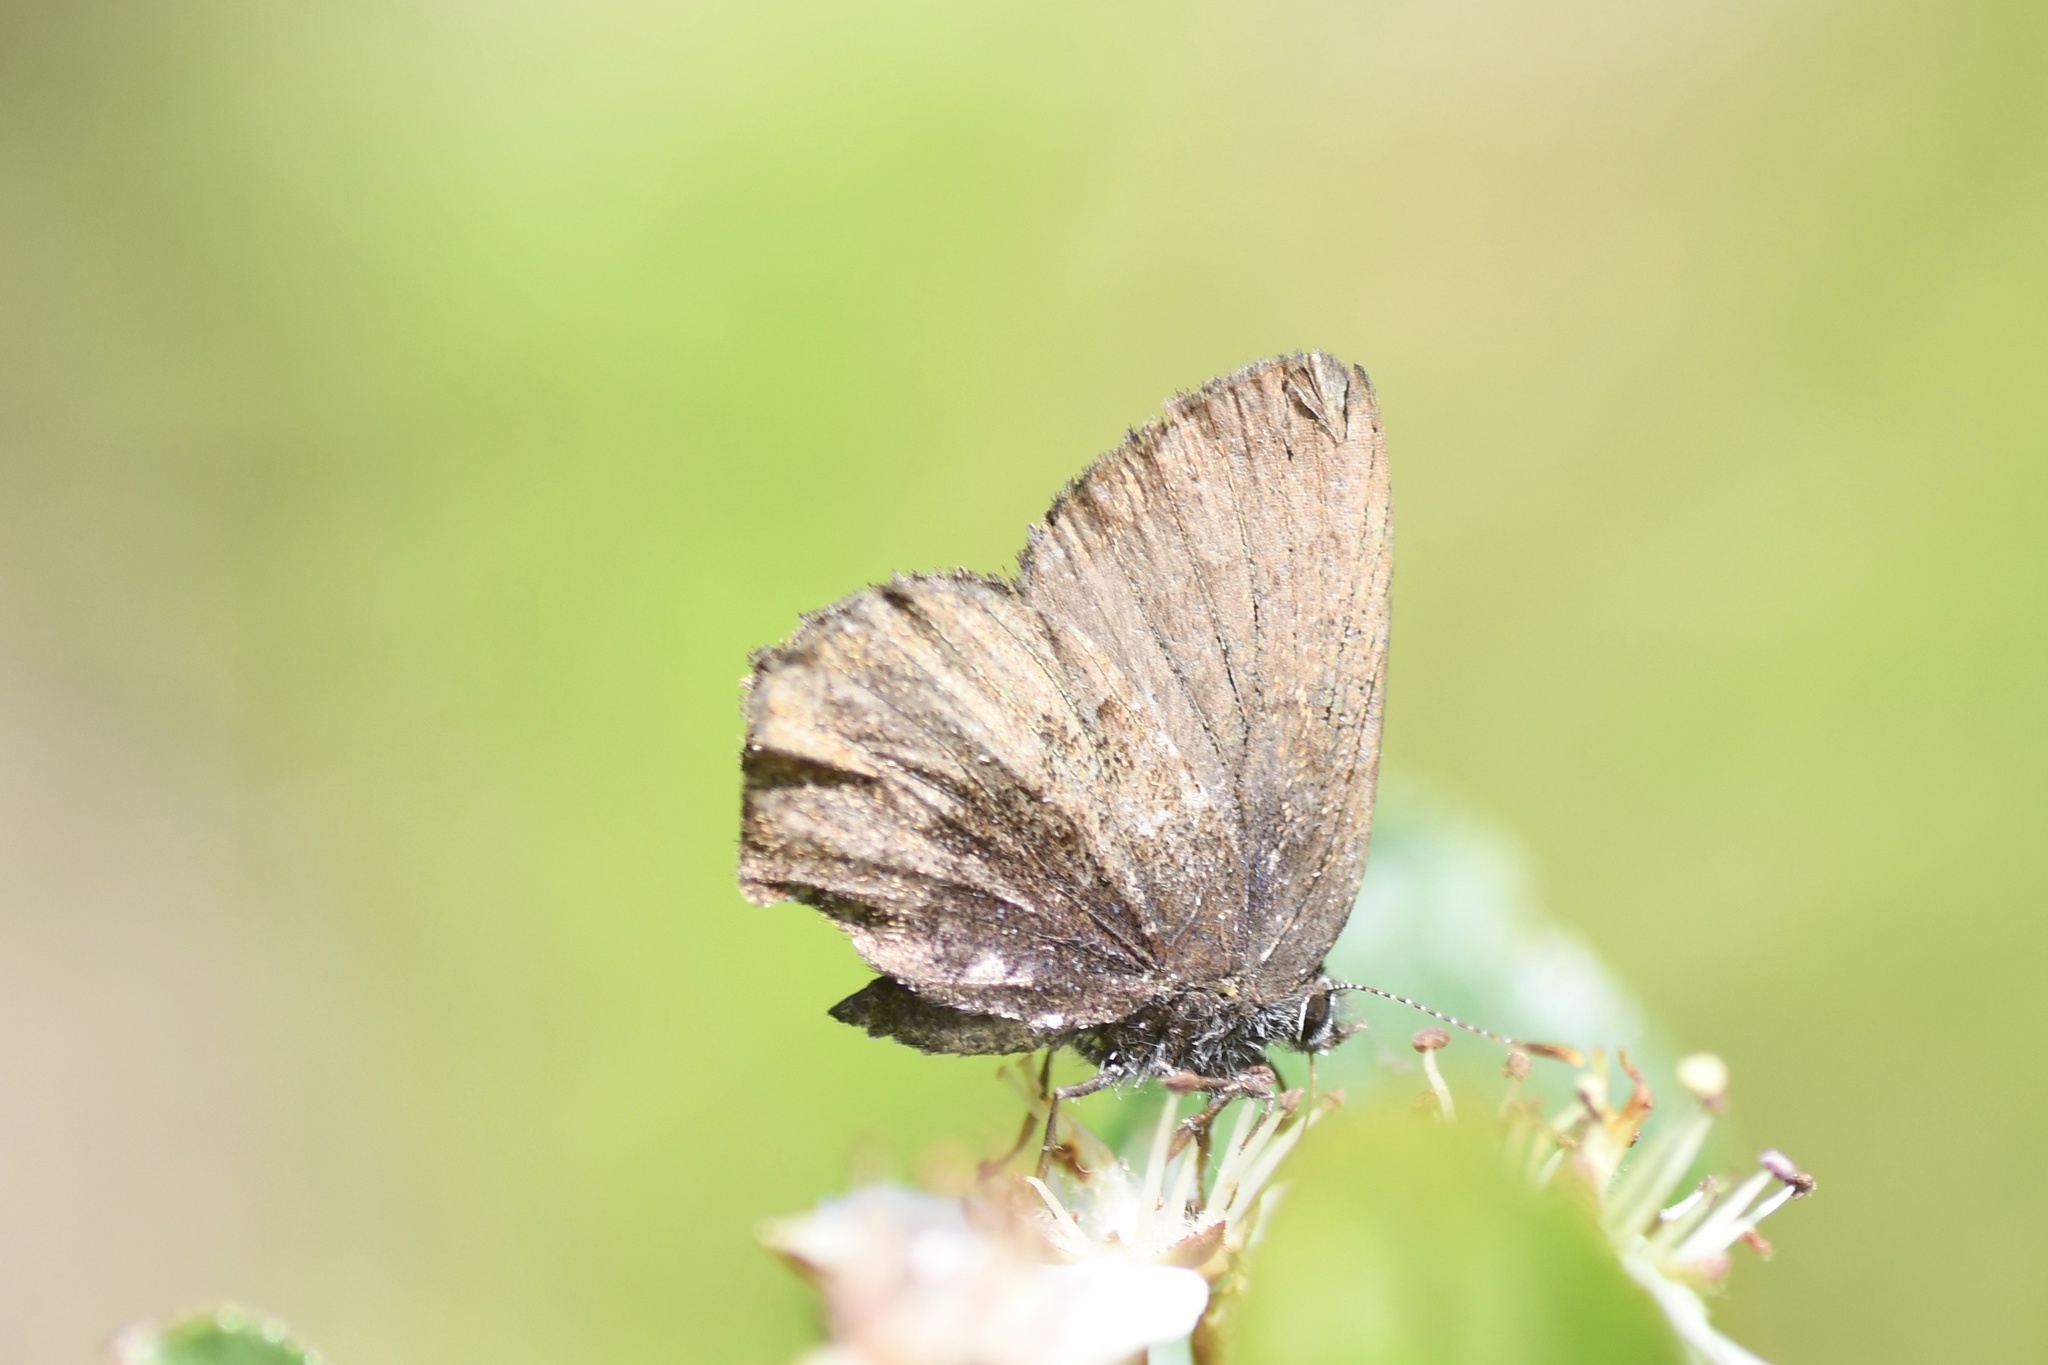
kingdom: Animalia
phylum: Arthropoda
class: Insecta
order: Lepidoptera
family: Lycaenidae
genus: Incisalia
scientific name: Incisalia irioides
